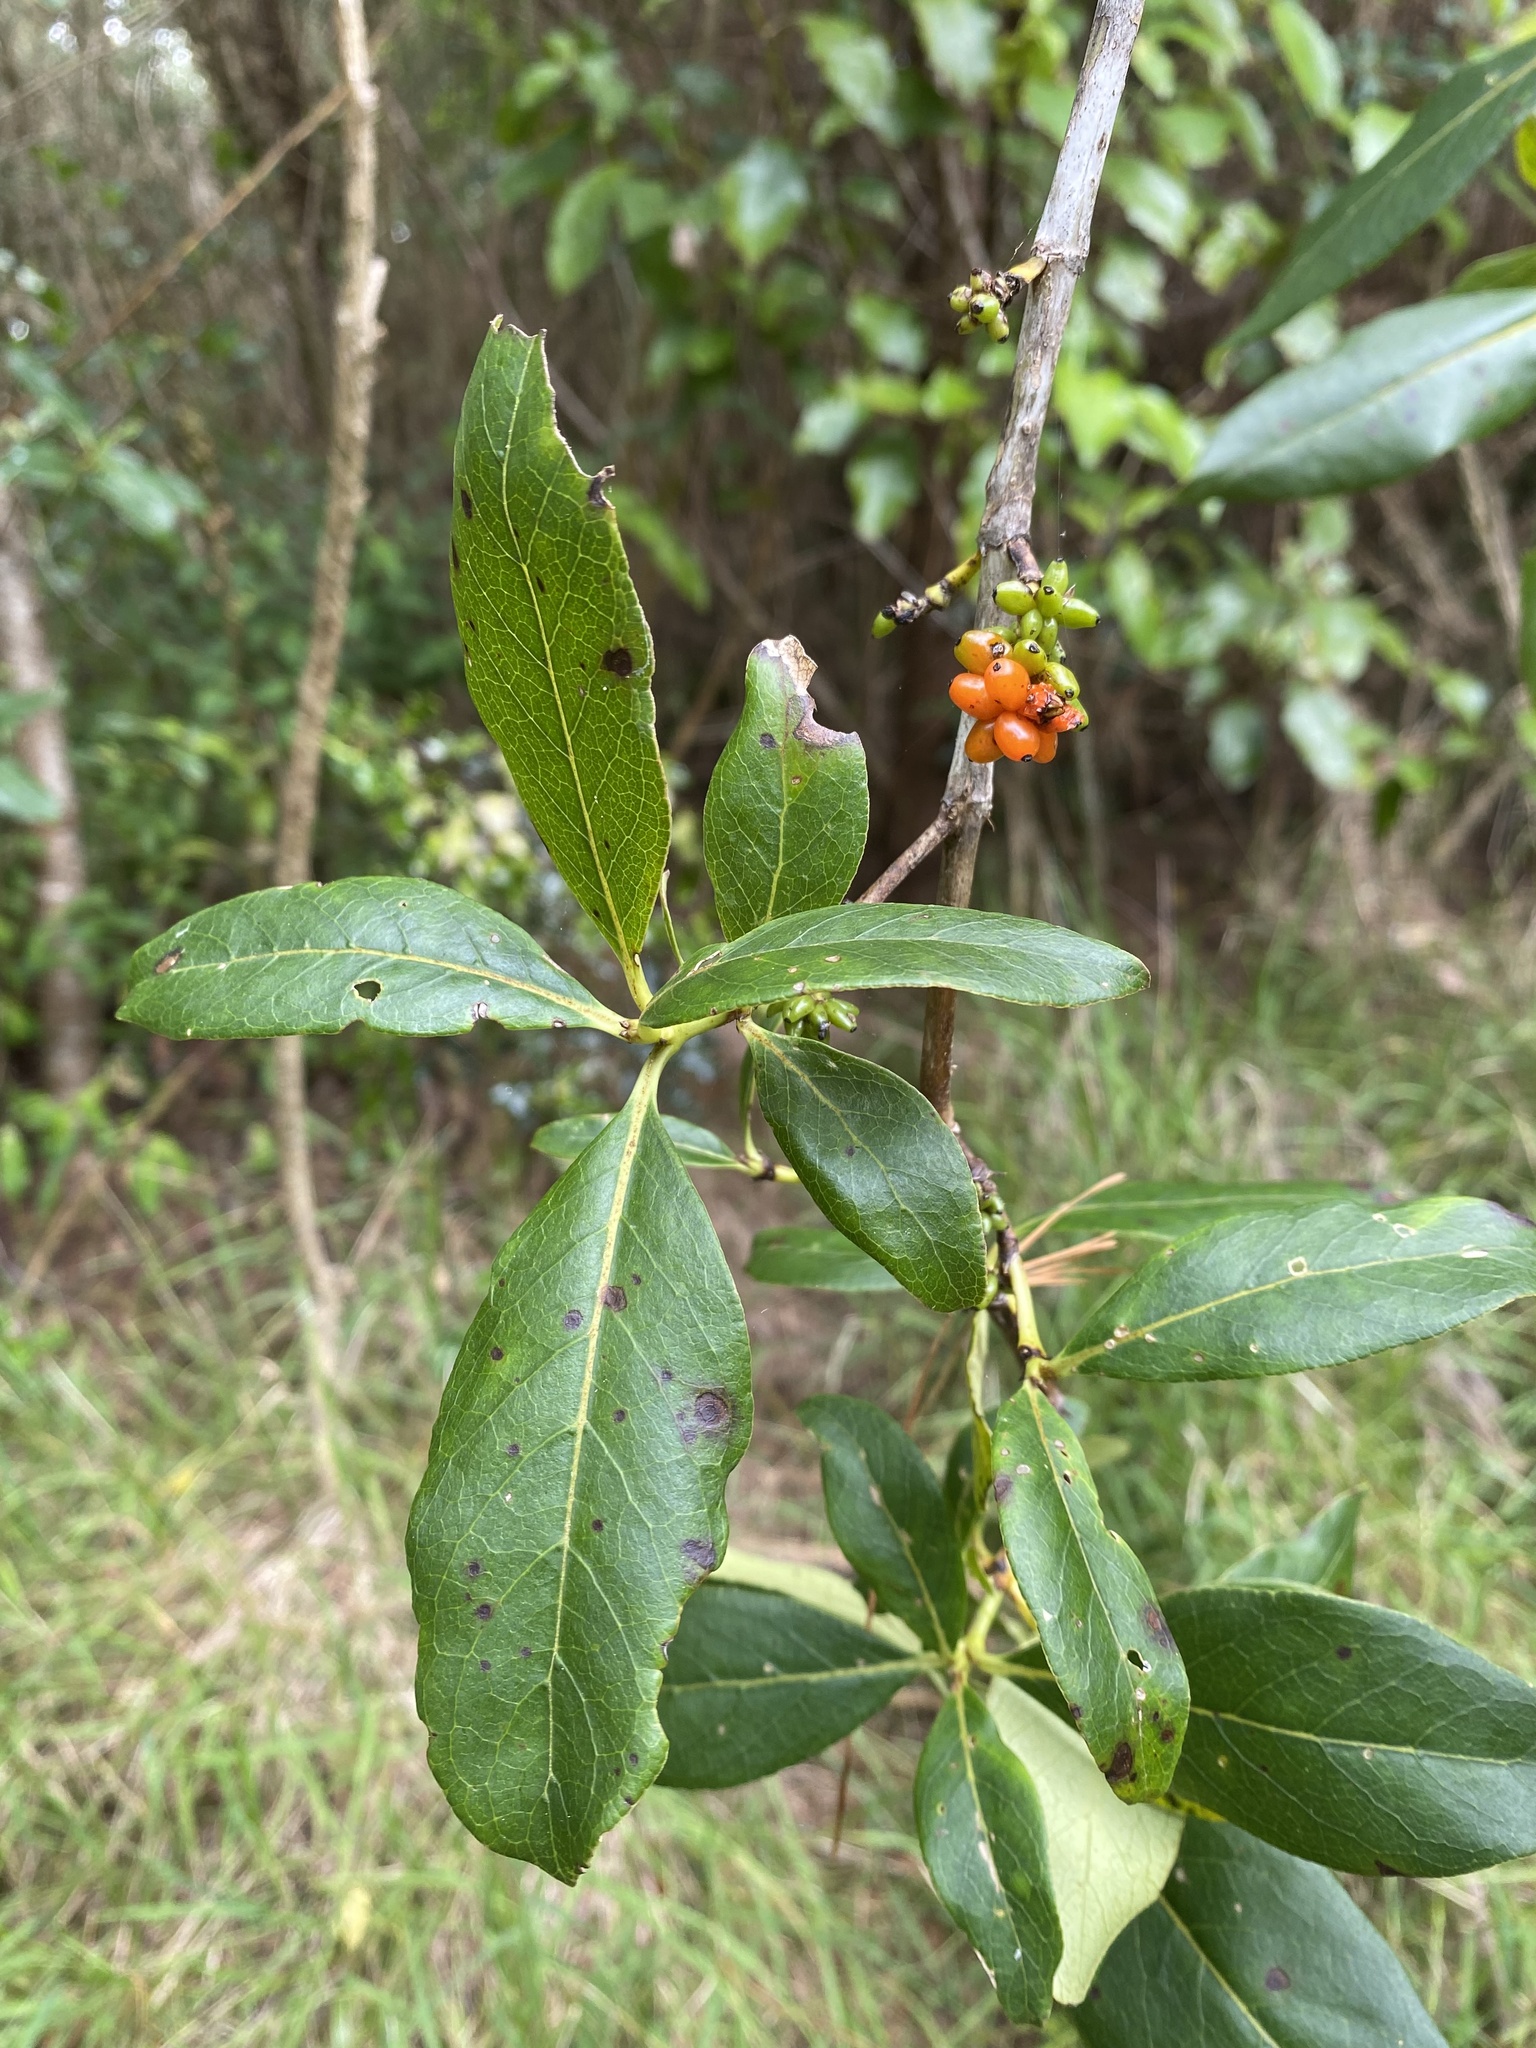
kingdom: Plantae
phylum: Tracheophyta
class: Magnoliopsida
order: Gentianales
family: Rubiaceae
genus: Coprosma
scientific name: Coprosma robusta
